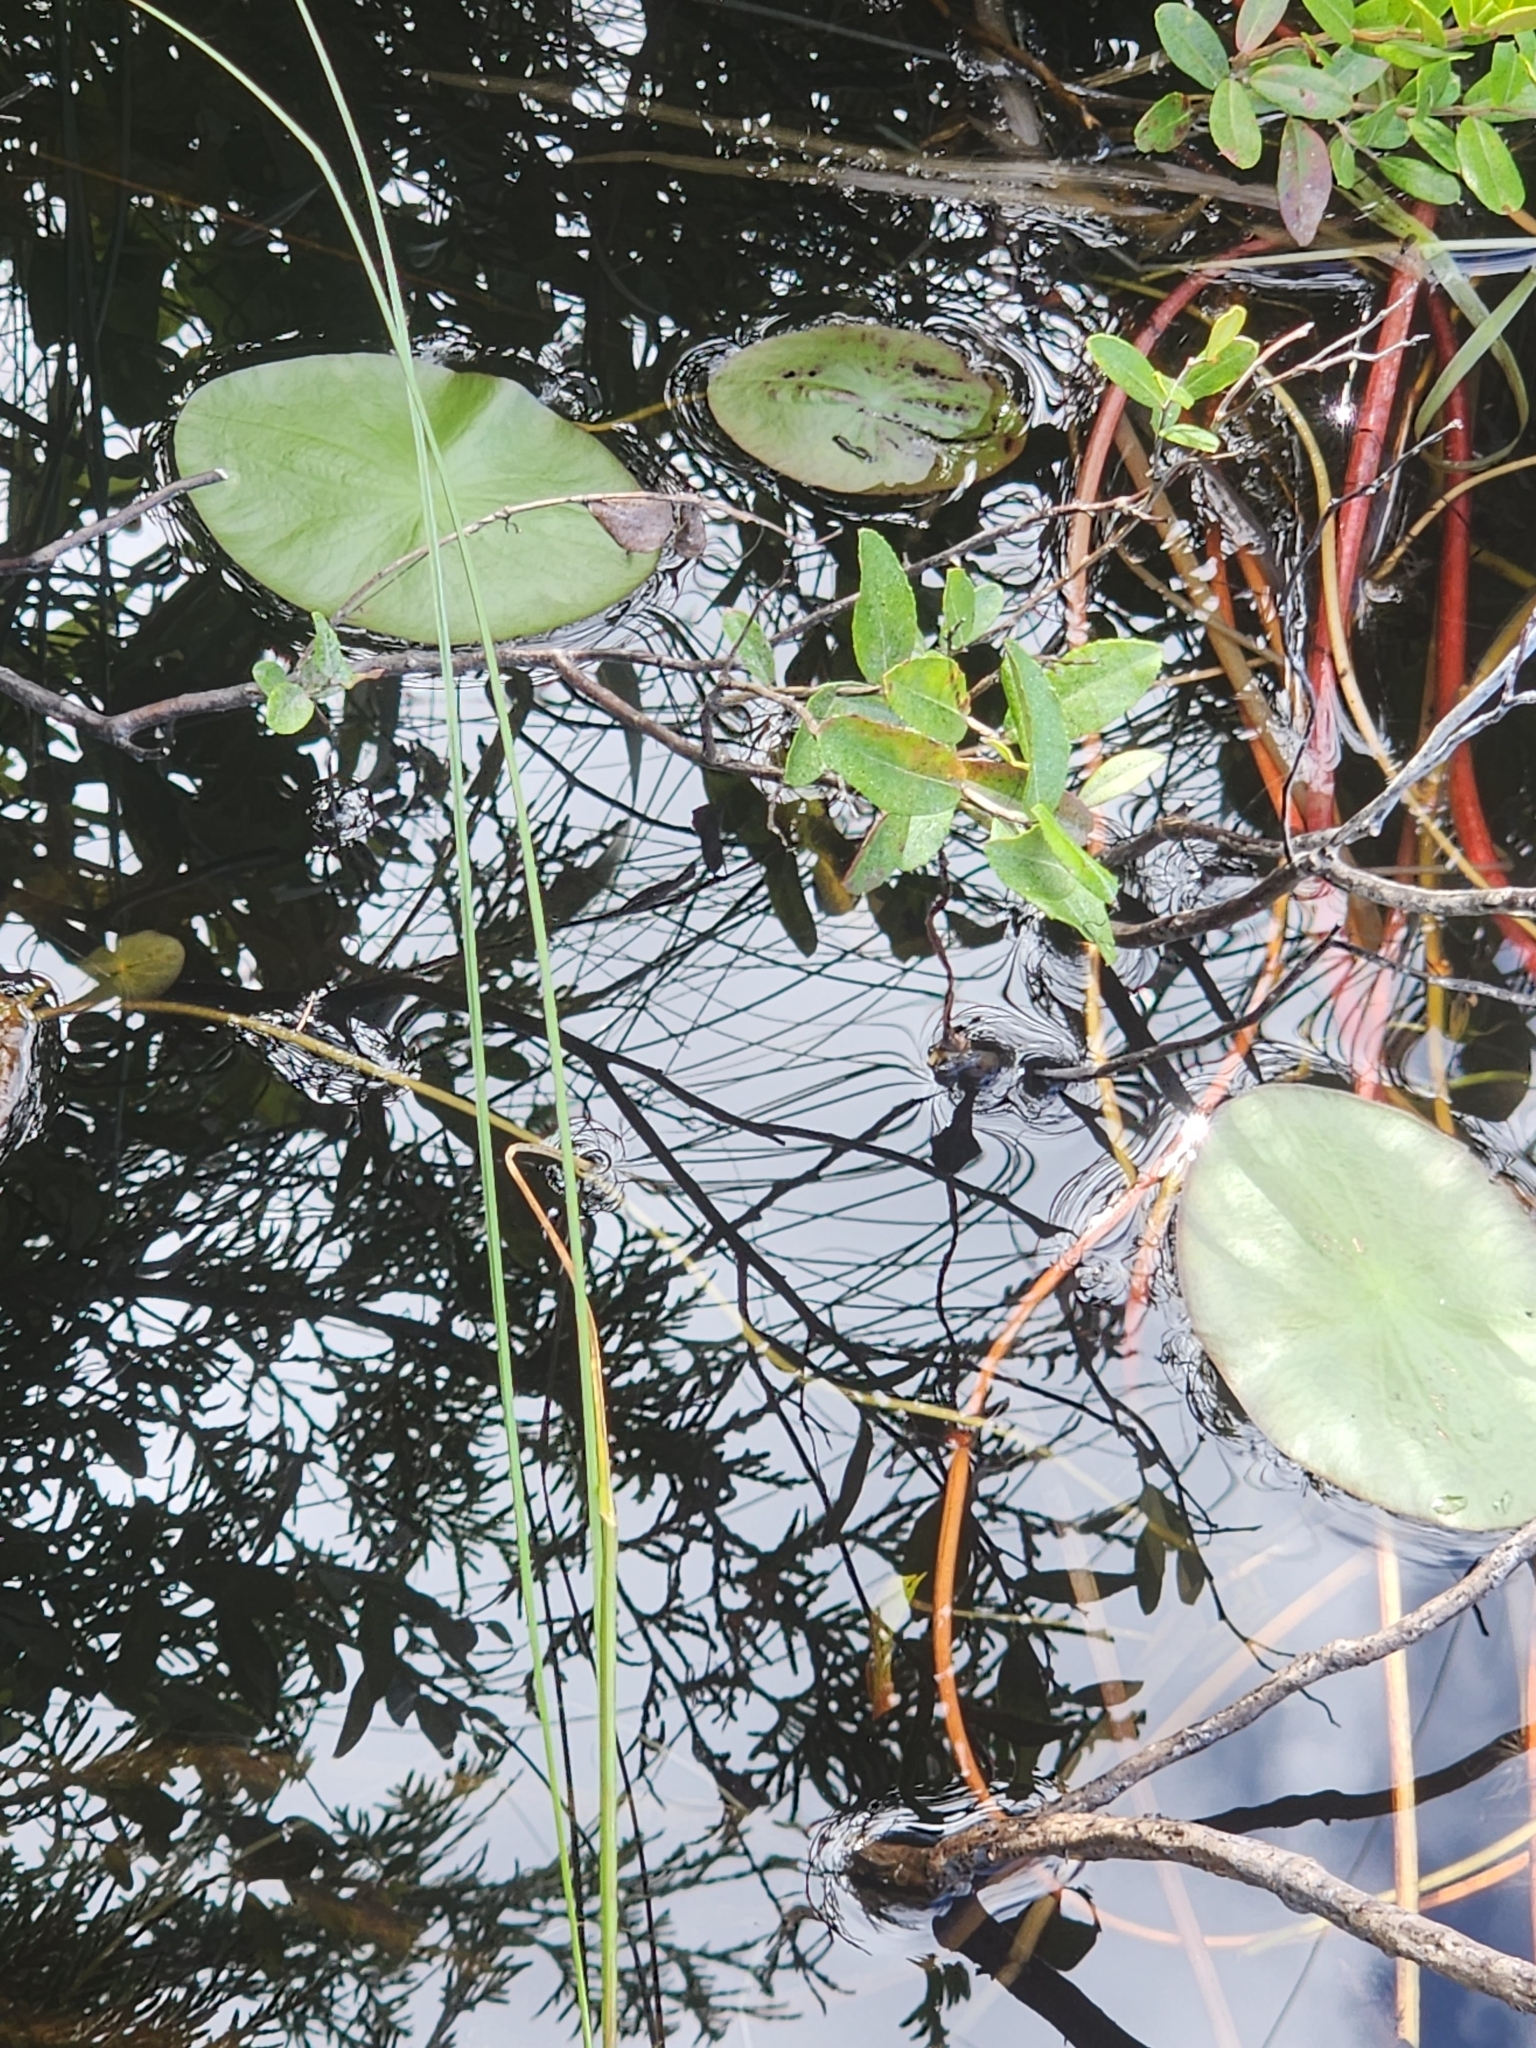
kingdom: Plantae
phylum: Tracheophyta
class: Magnoliopsida
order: Nymphaeales
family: Cabombaceae
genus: Brasenia
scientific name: Brasenia schreberi
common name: Water-shield
